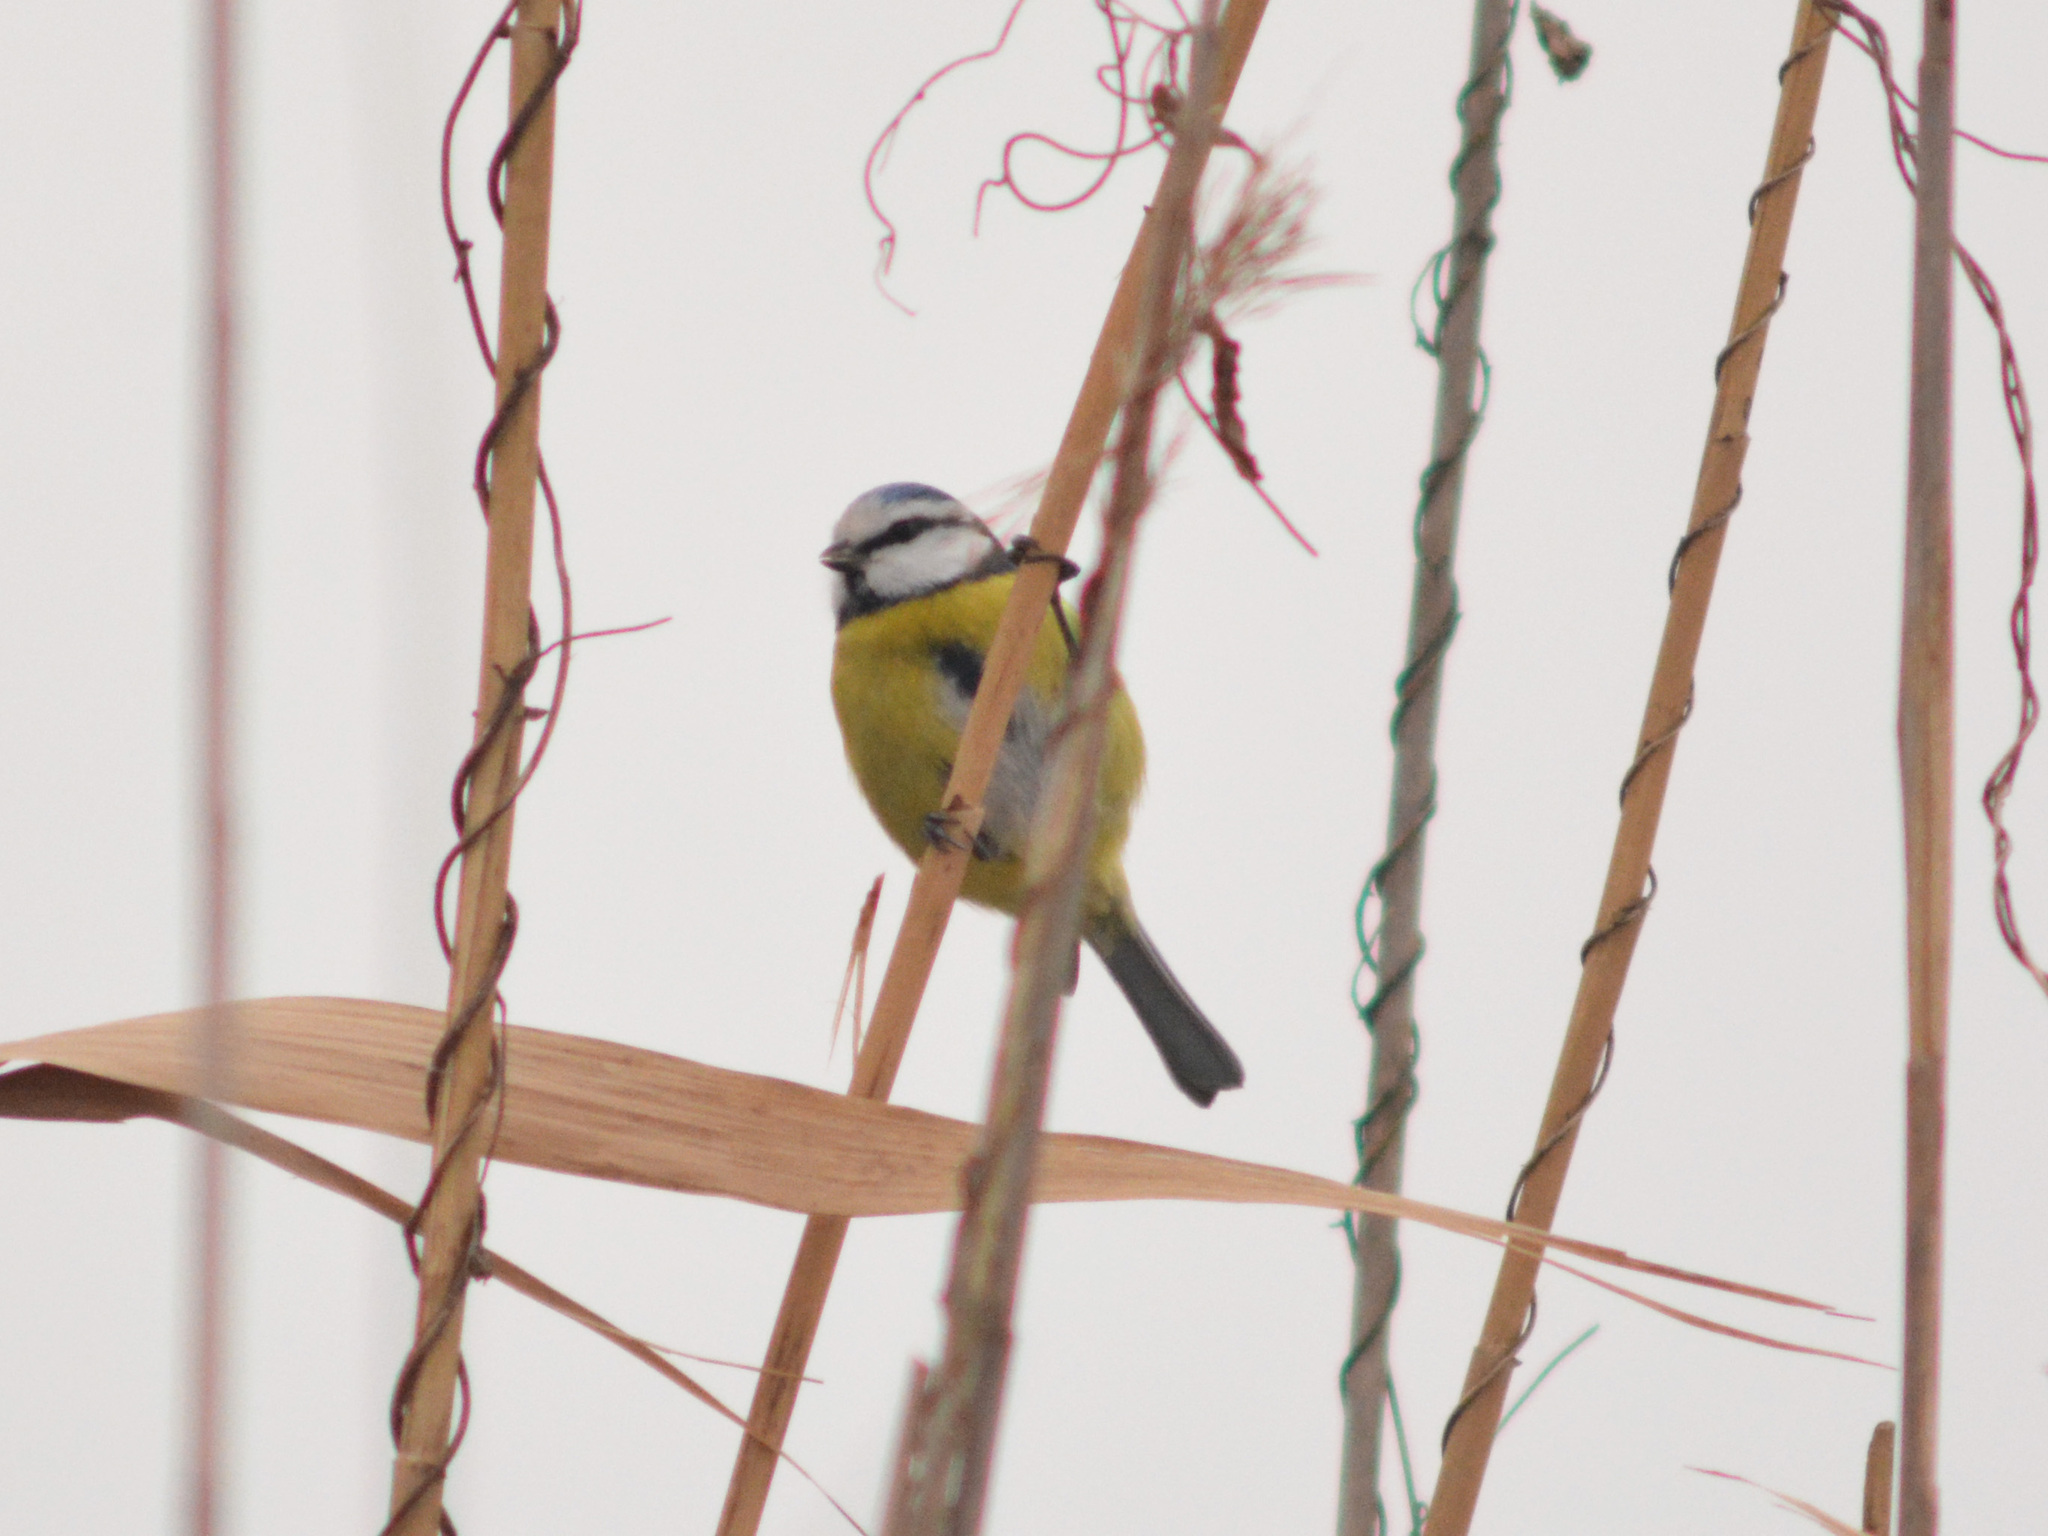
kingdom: Animalia
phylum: Chordata
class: Aves
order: Passeriformes
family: Paridae
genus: Cyanistes
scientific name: Cyanistes caeruleus
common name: Eurasian blue tit
